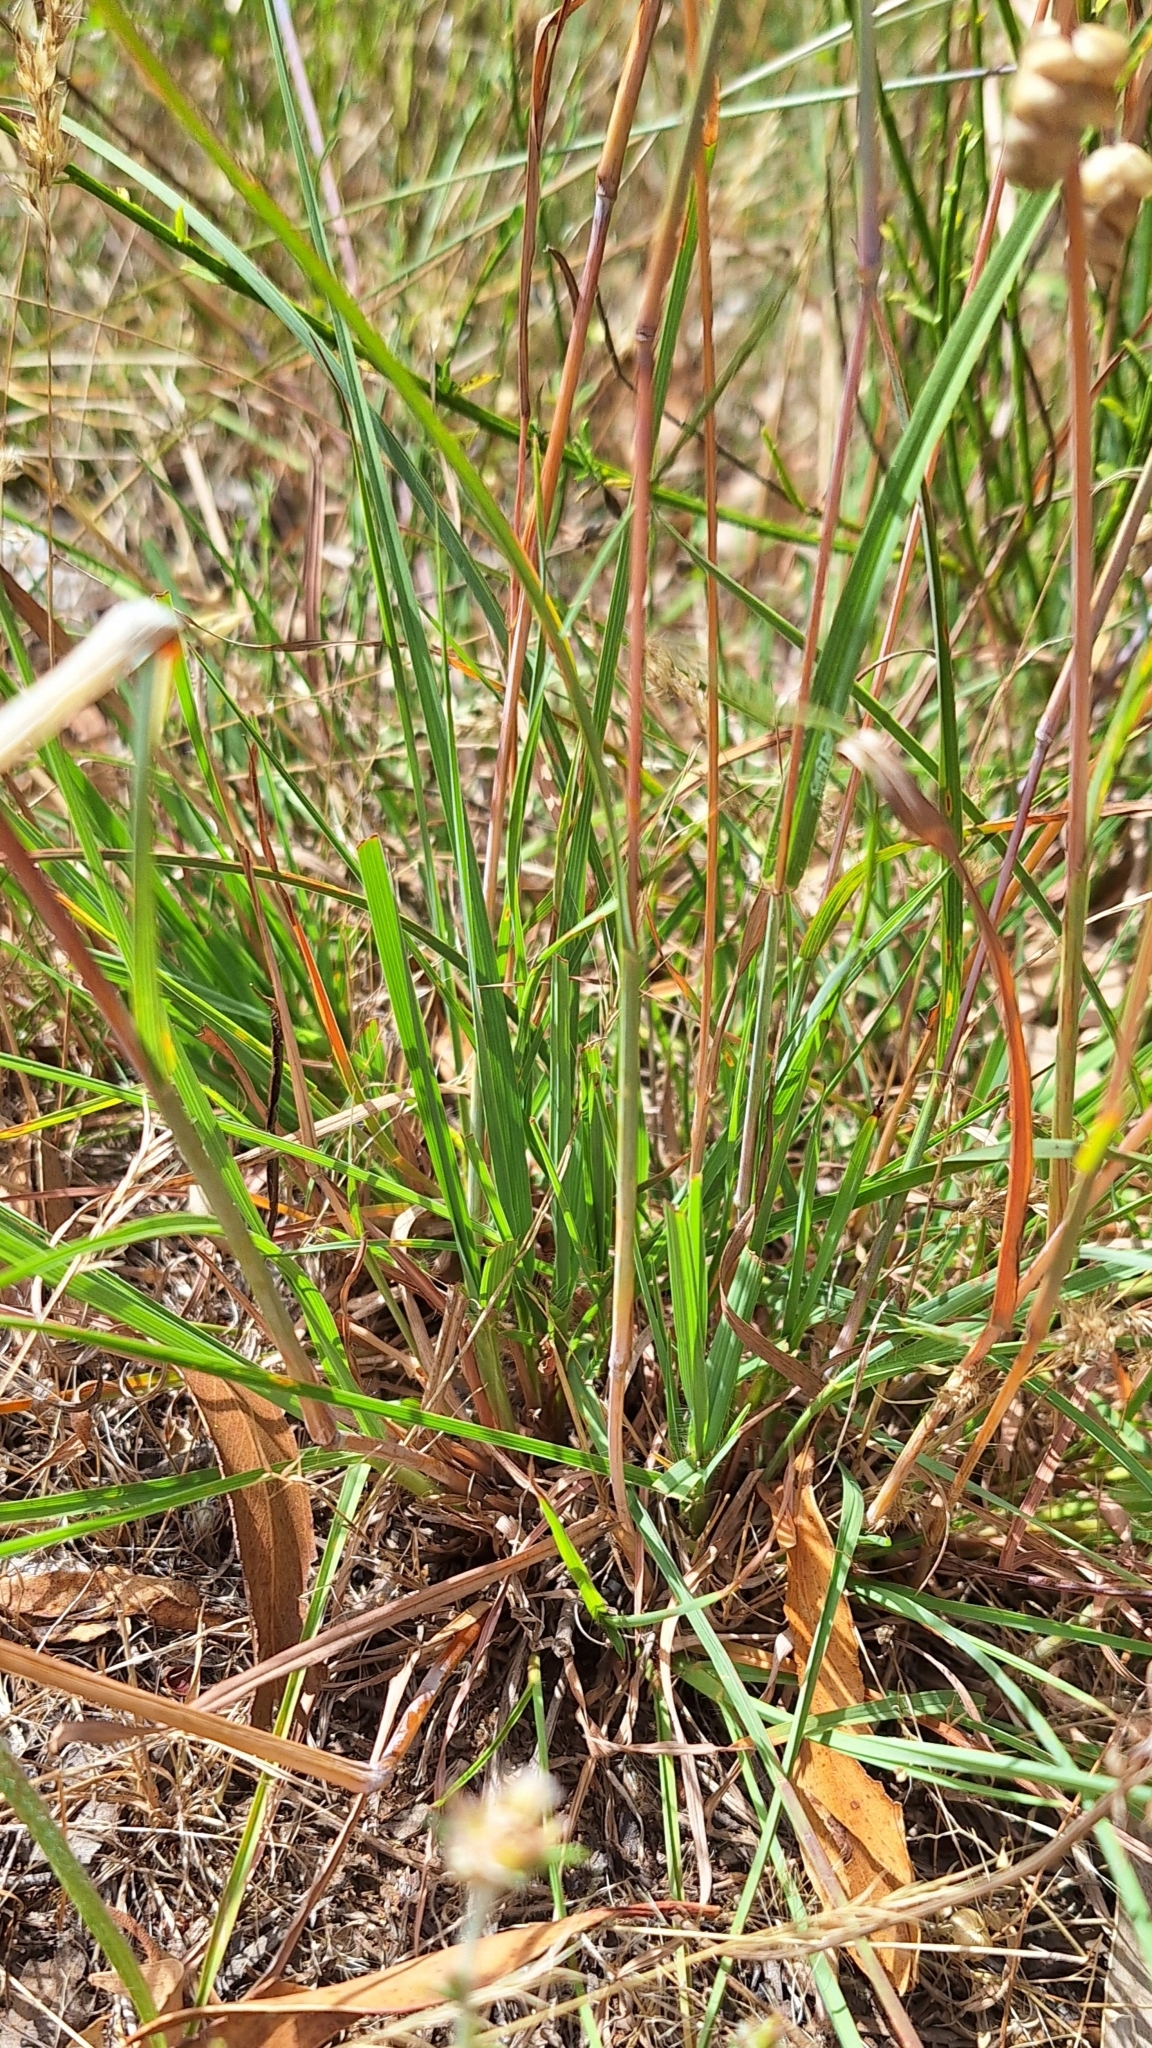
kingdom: Plantae
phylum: Tracheophyta
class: Liliopsida
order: Poales
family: Poaceae
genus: Themeda
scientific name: Themeda triandra
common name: Kangaroo grass
